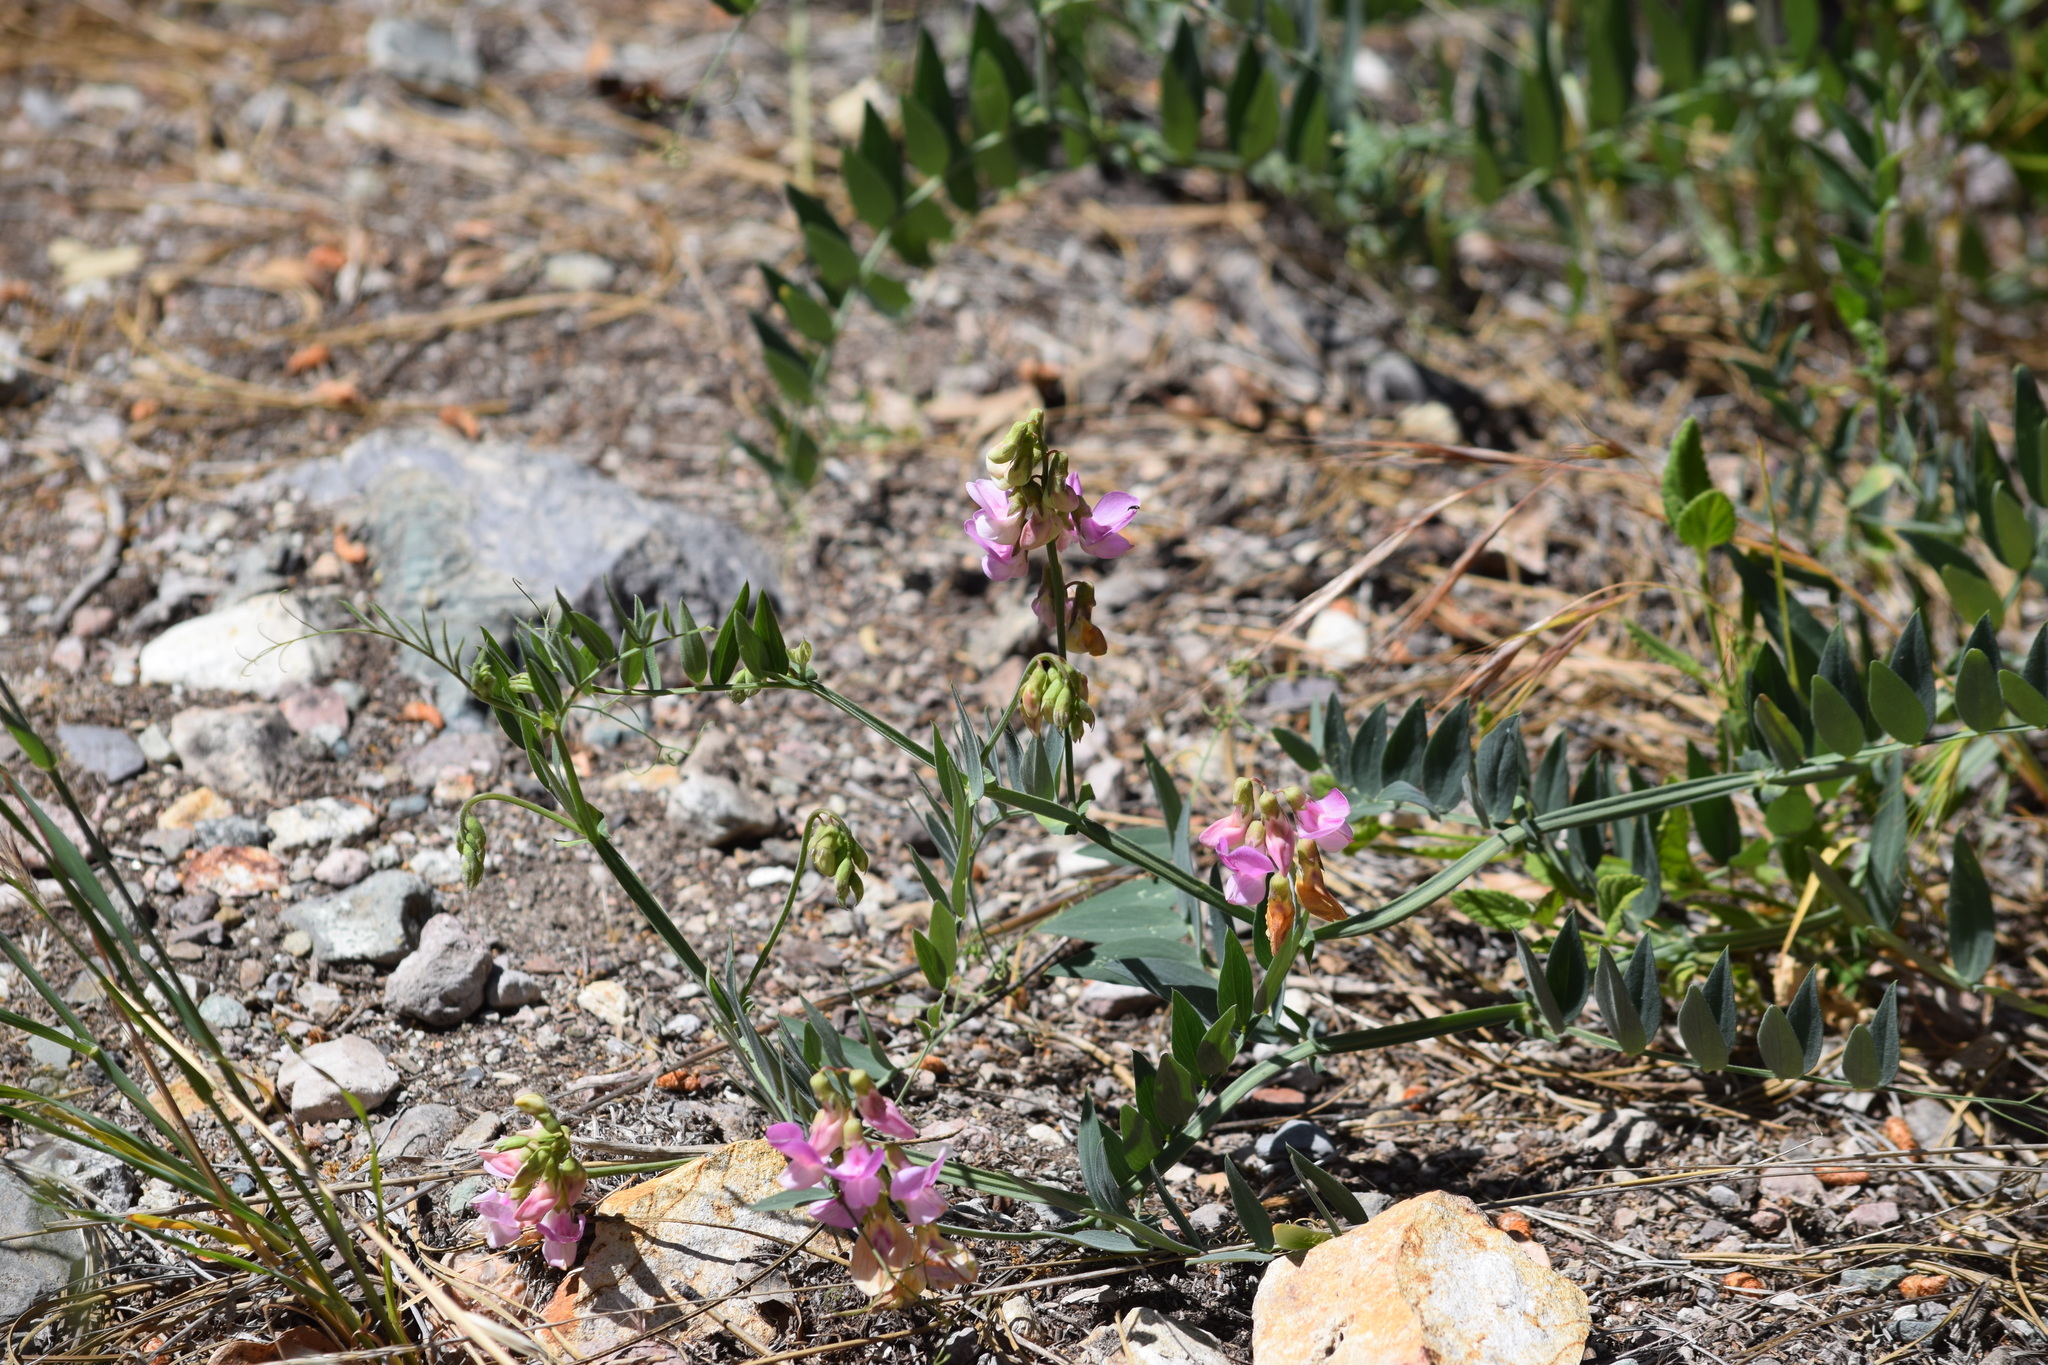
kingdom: Plantae
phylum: Tracheophyta
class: Magnoliopsida
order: Fabales
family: Fabaceae
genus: Lathyrus
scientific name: Lathyrus jepsonii
